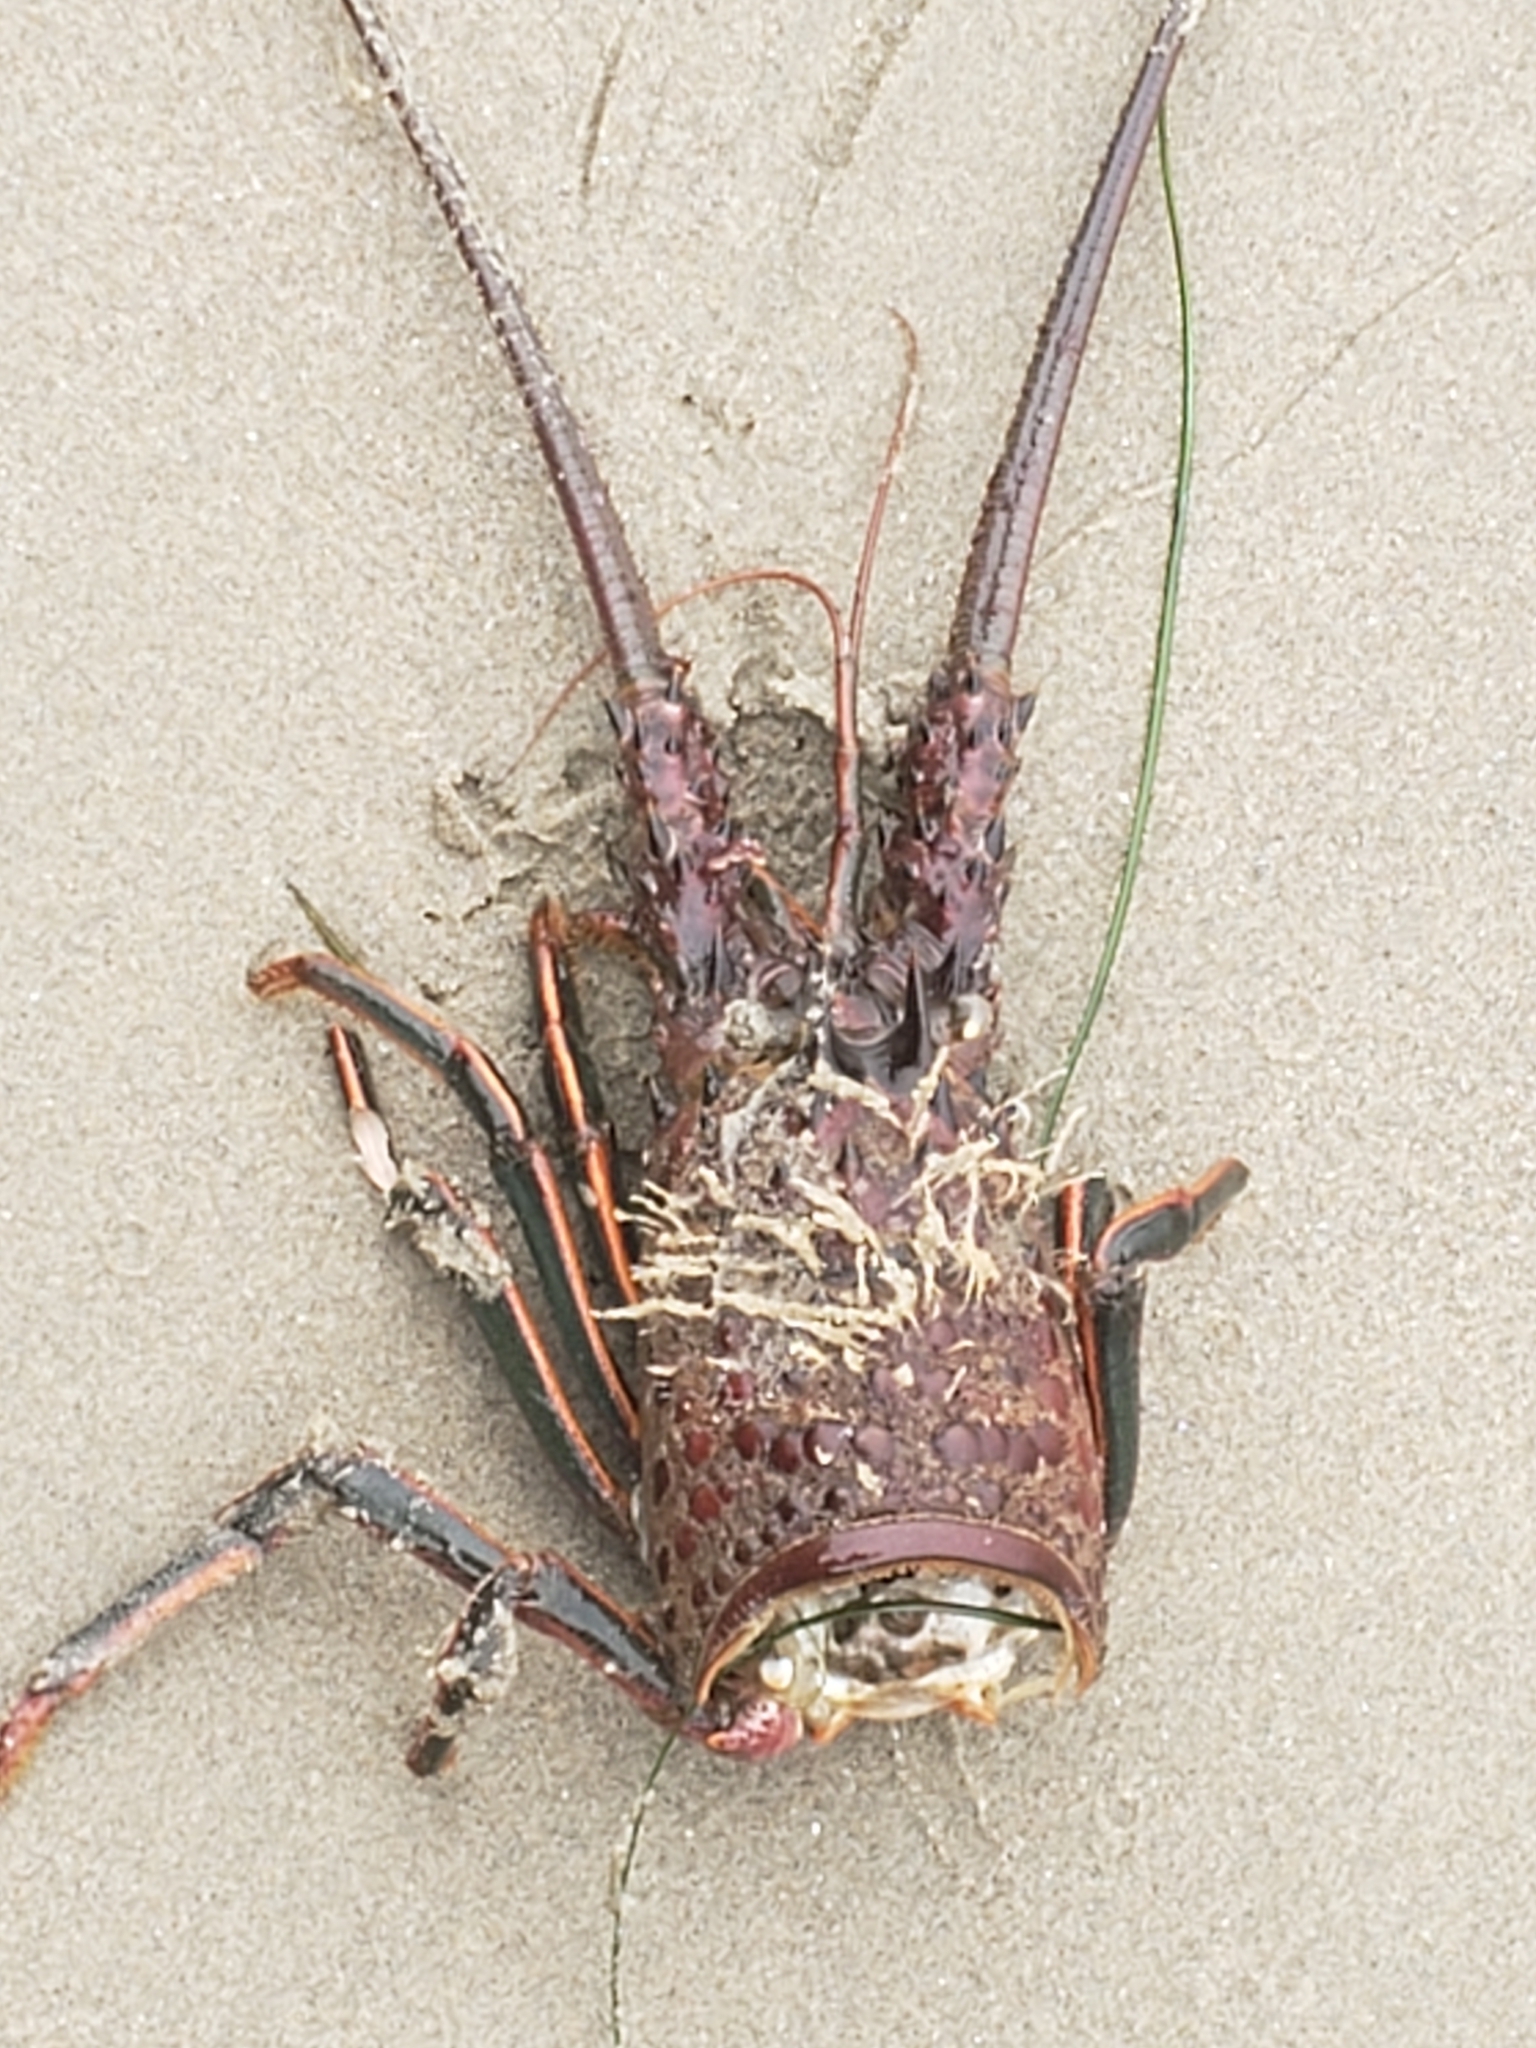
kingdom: Animalia
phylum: Arthropoda
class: Malacostraca
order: Decapoda
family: Palinuridae
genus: Panulirus
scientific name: Panulirus interruptus
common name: California spiny lobster
